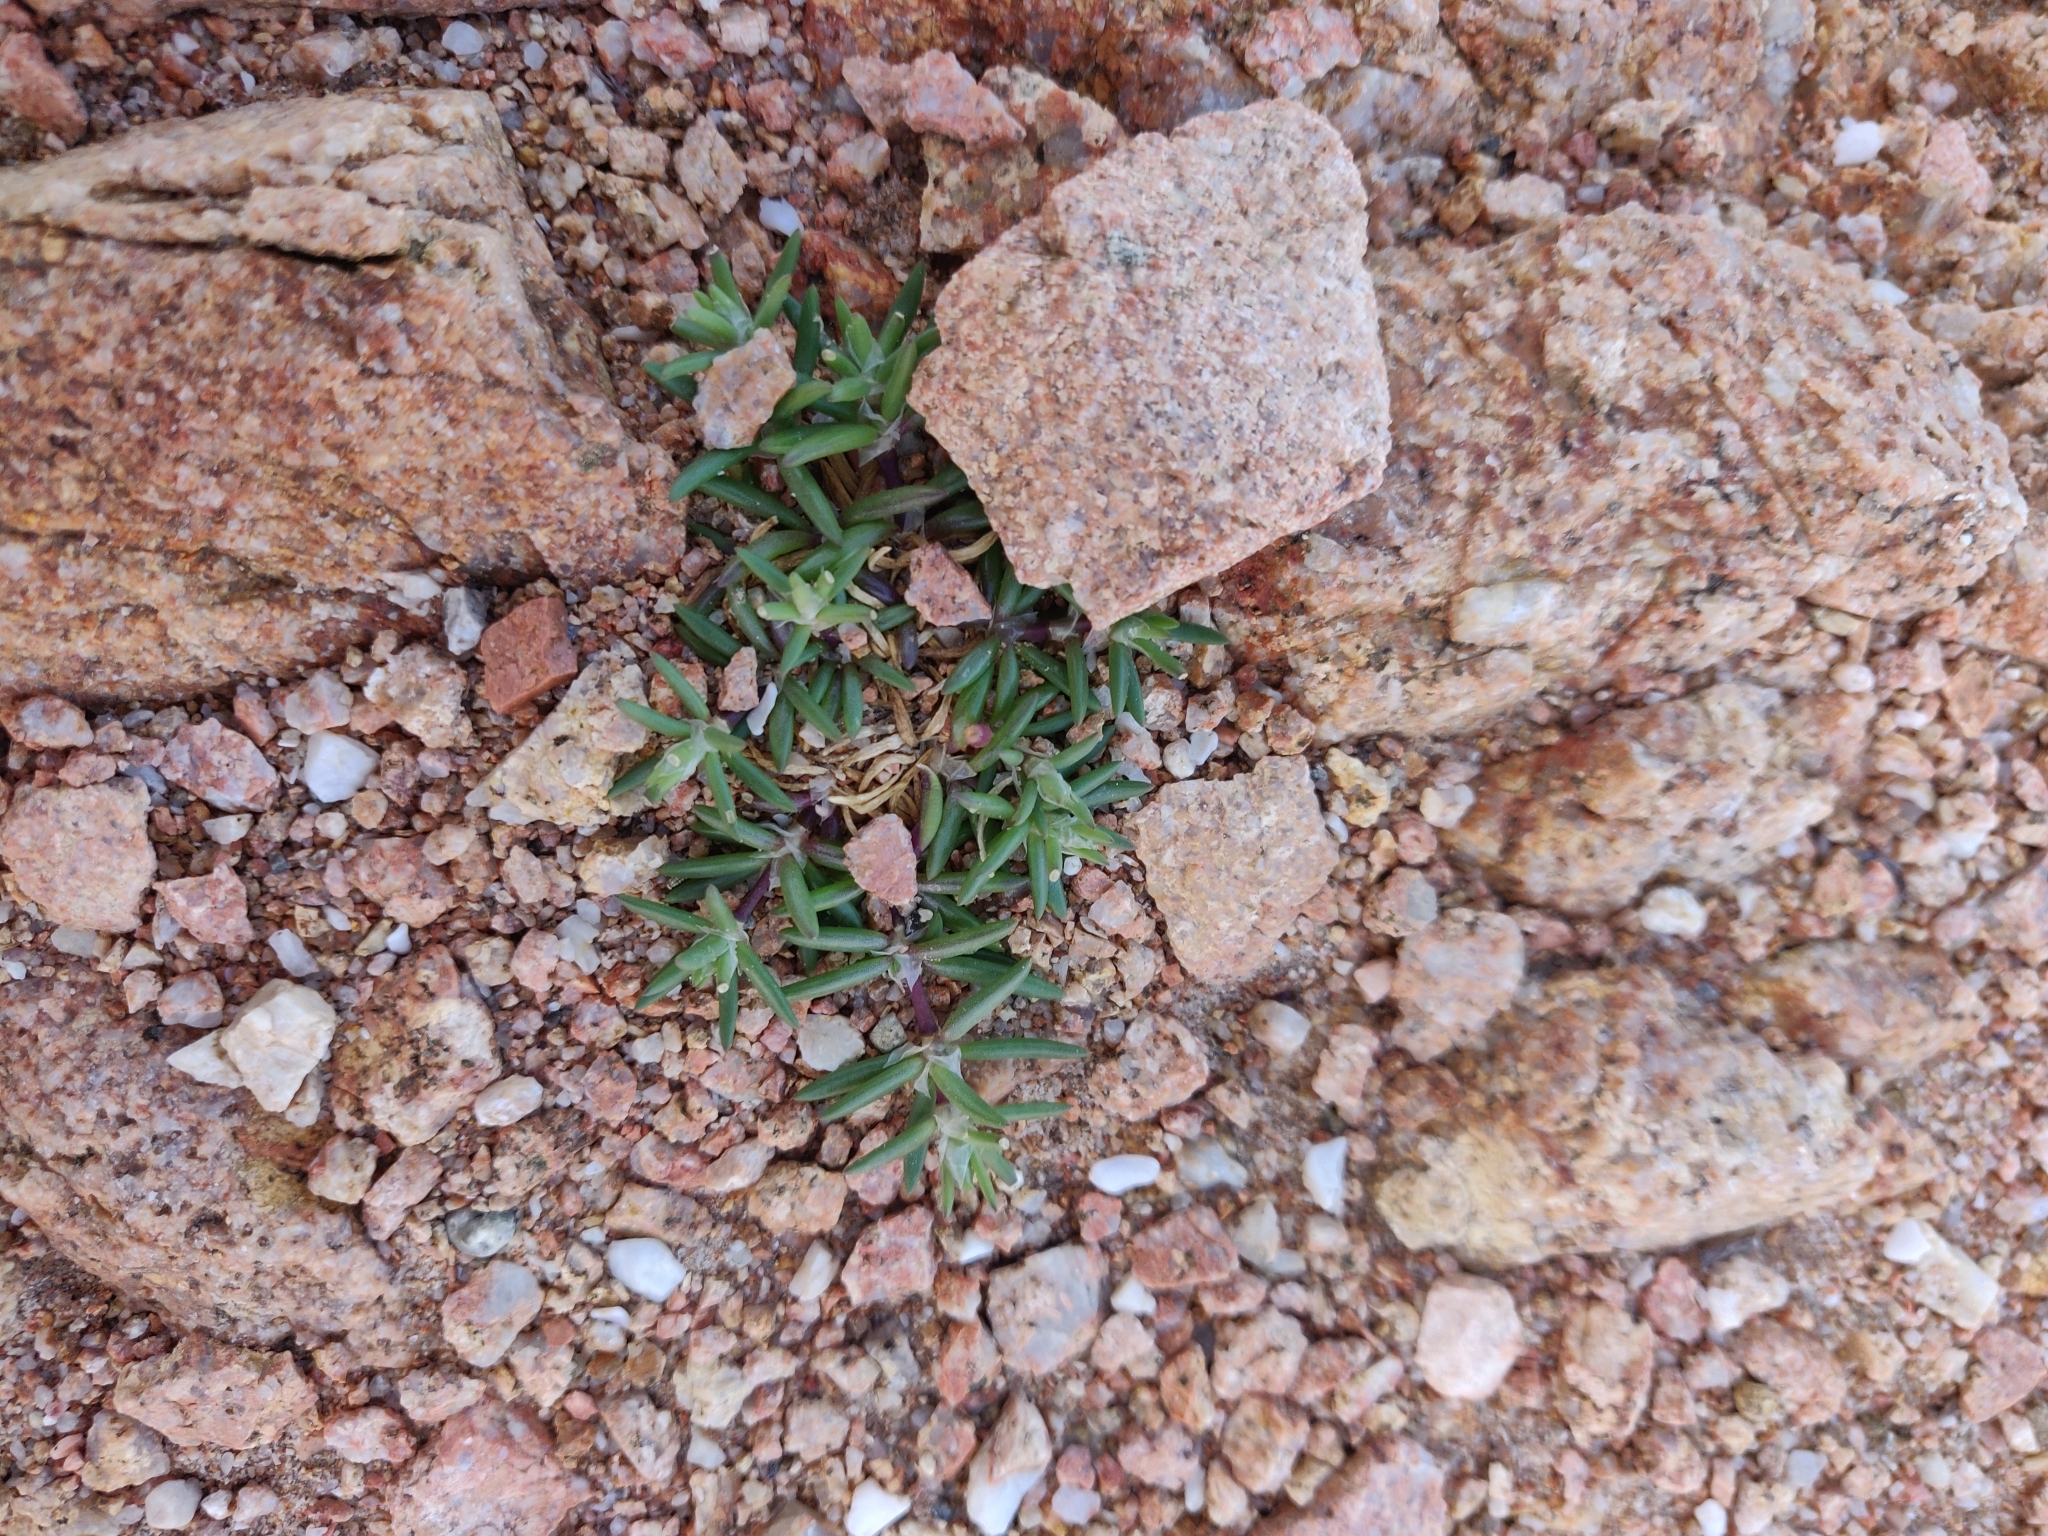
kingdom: Plantae
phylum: Tracheophyta
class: Magnoliopsida
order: Caryophyllales
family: Caryophyllaceae
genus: Spergularia
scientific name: Spergularia marina
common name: Lesser sea-spurrey
